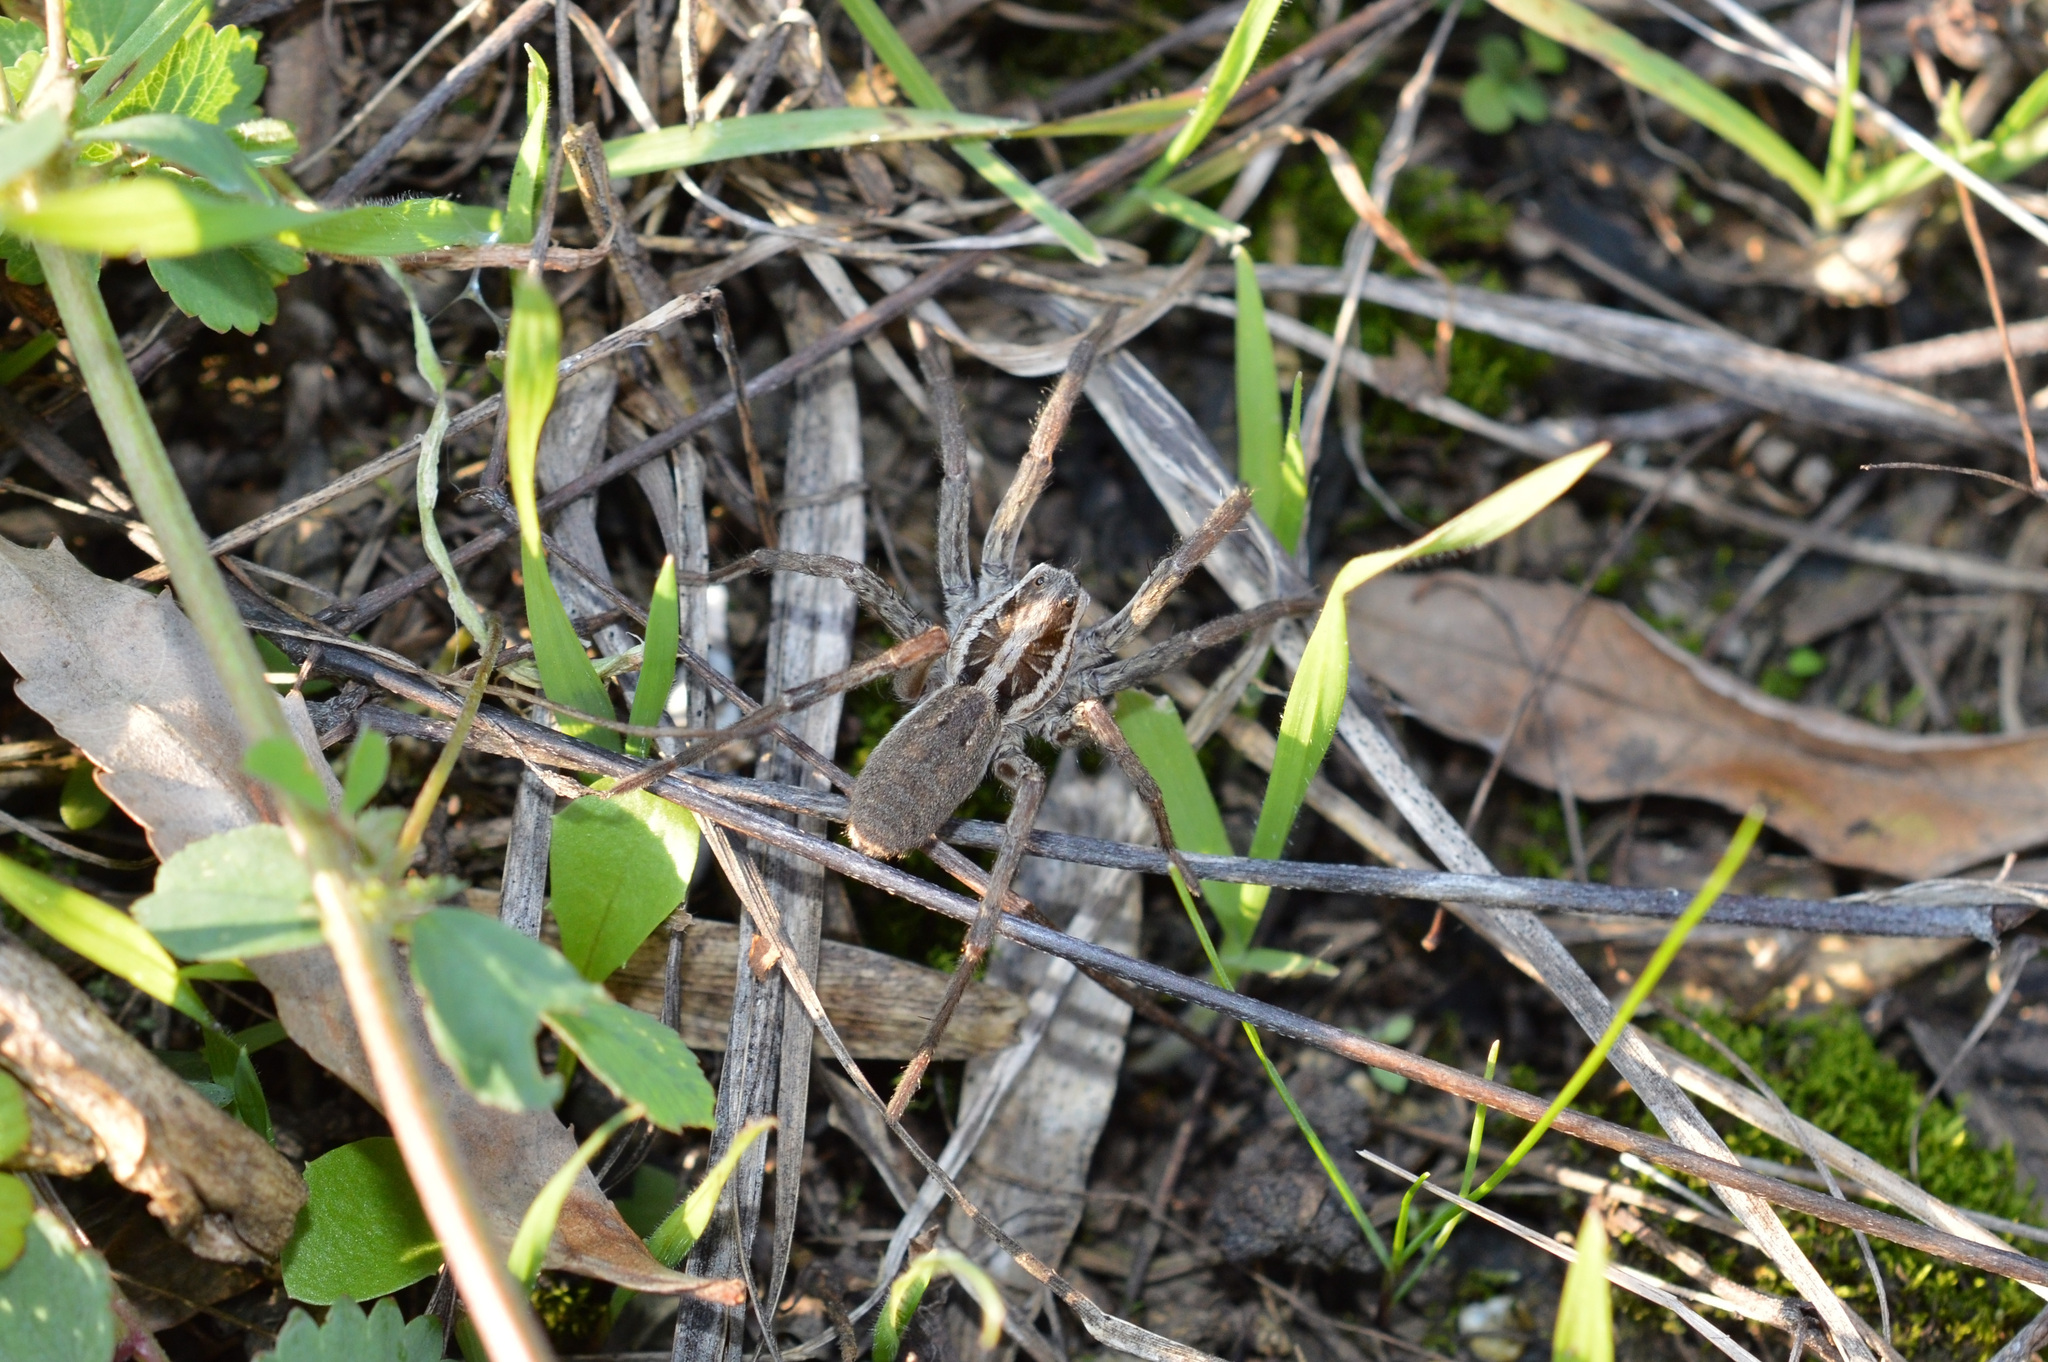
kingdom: Animalia
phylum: Arthropoda
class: Arachnida
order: Araneae
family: Lycosidae
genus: Hogna
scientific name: Hogna radiata
